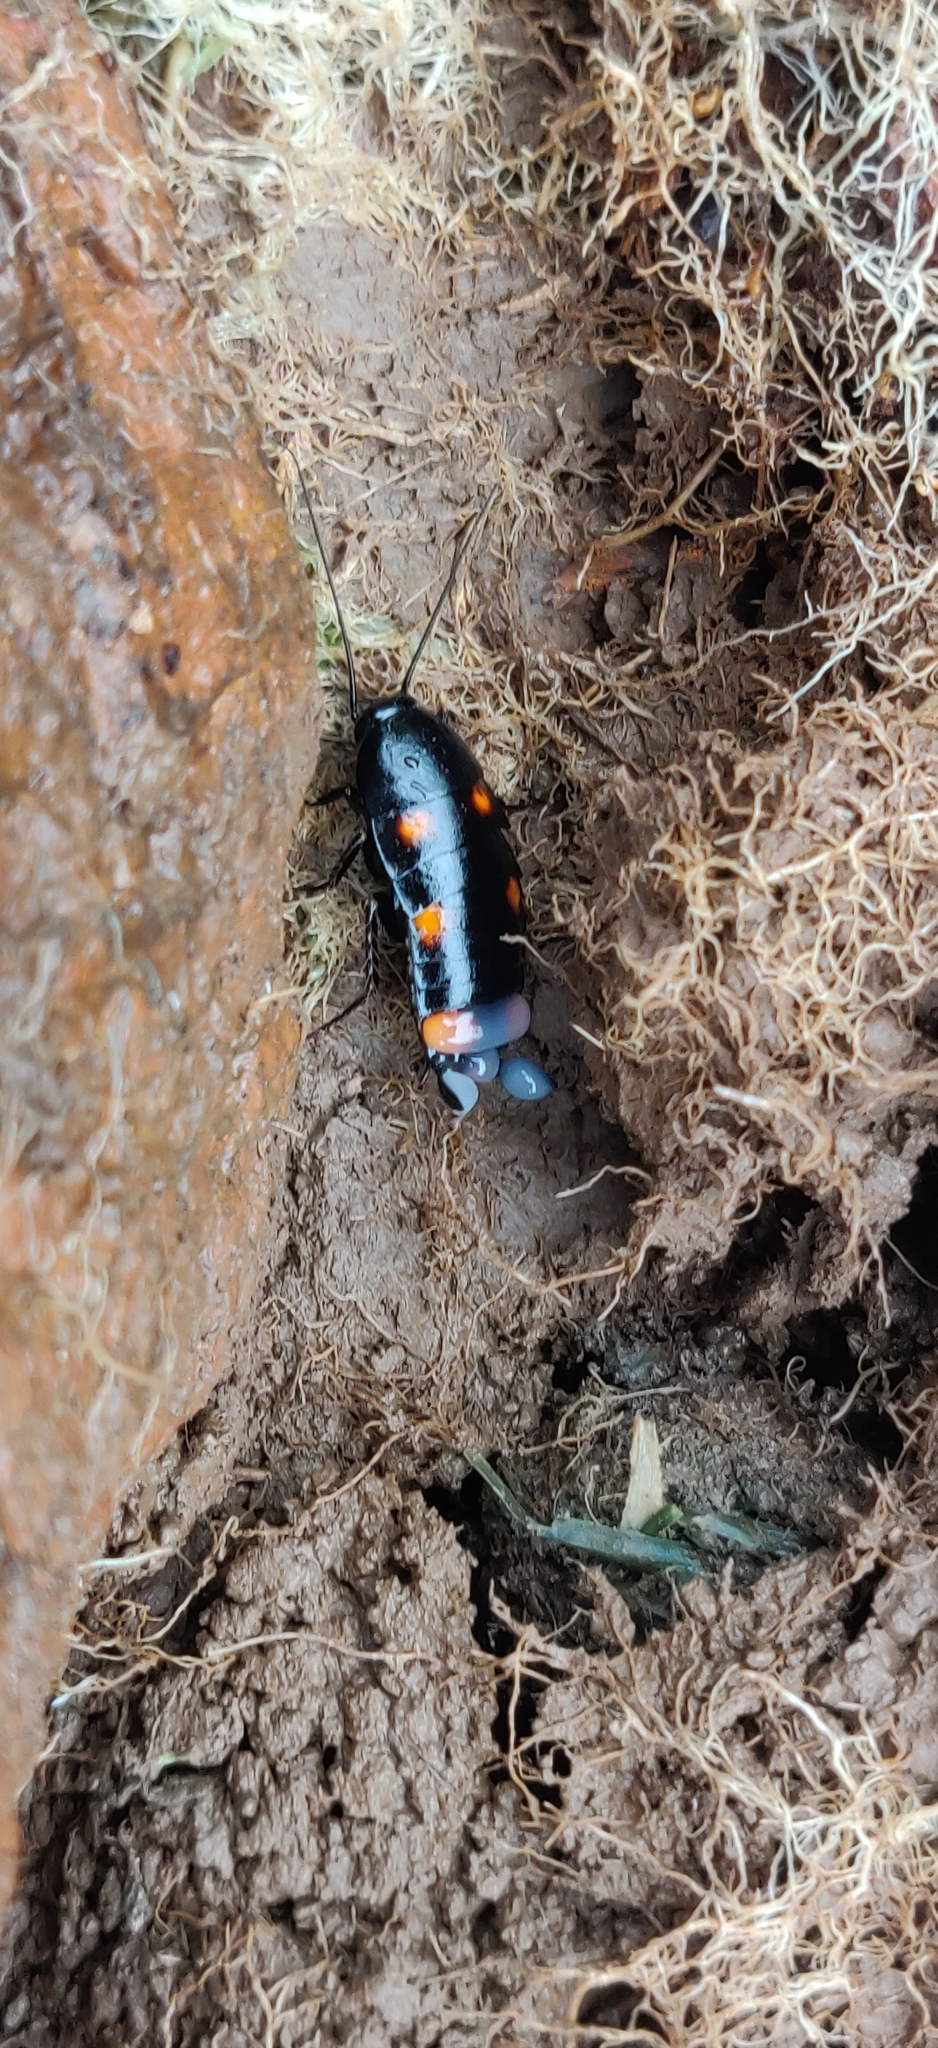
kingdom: Animalia
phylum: Arthropoda
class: Insecta
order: Blattodea
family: Blattidae
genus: Neostylopyga
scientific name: Neostylopyga sexpustulata
